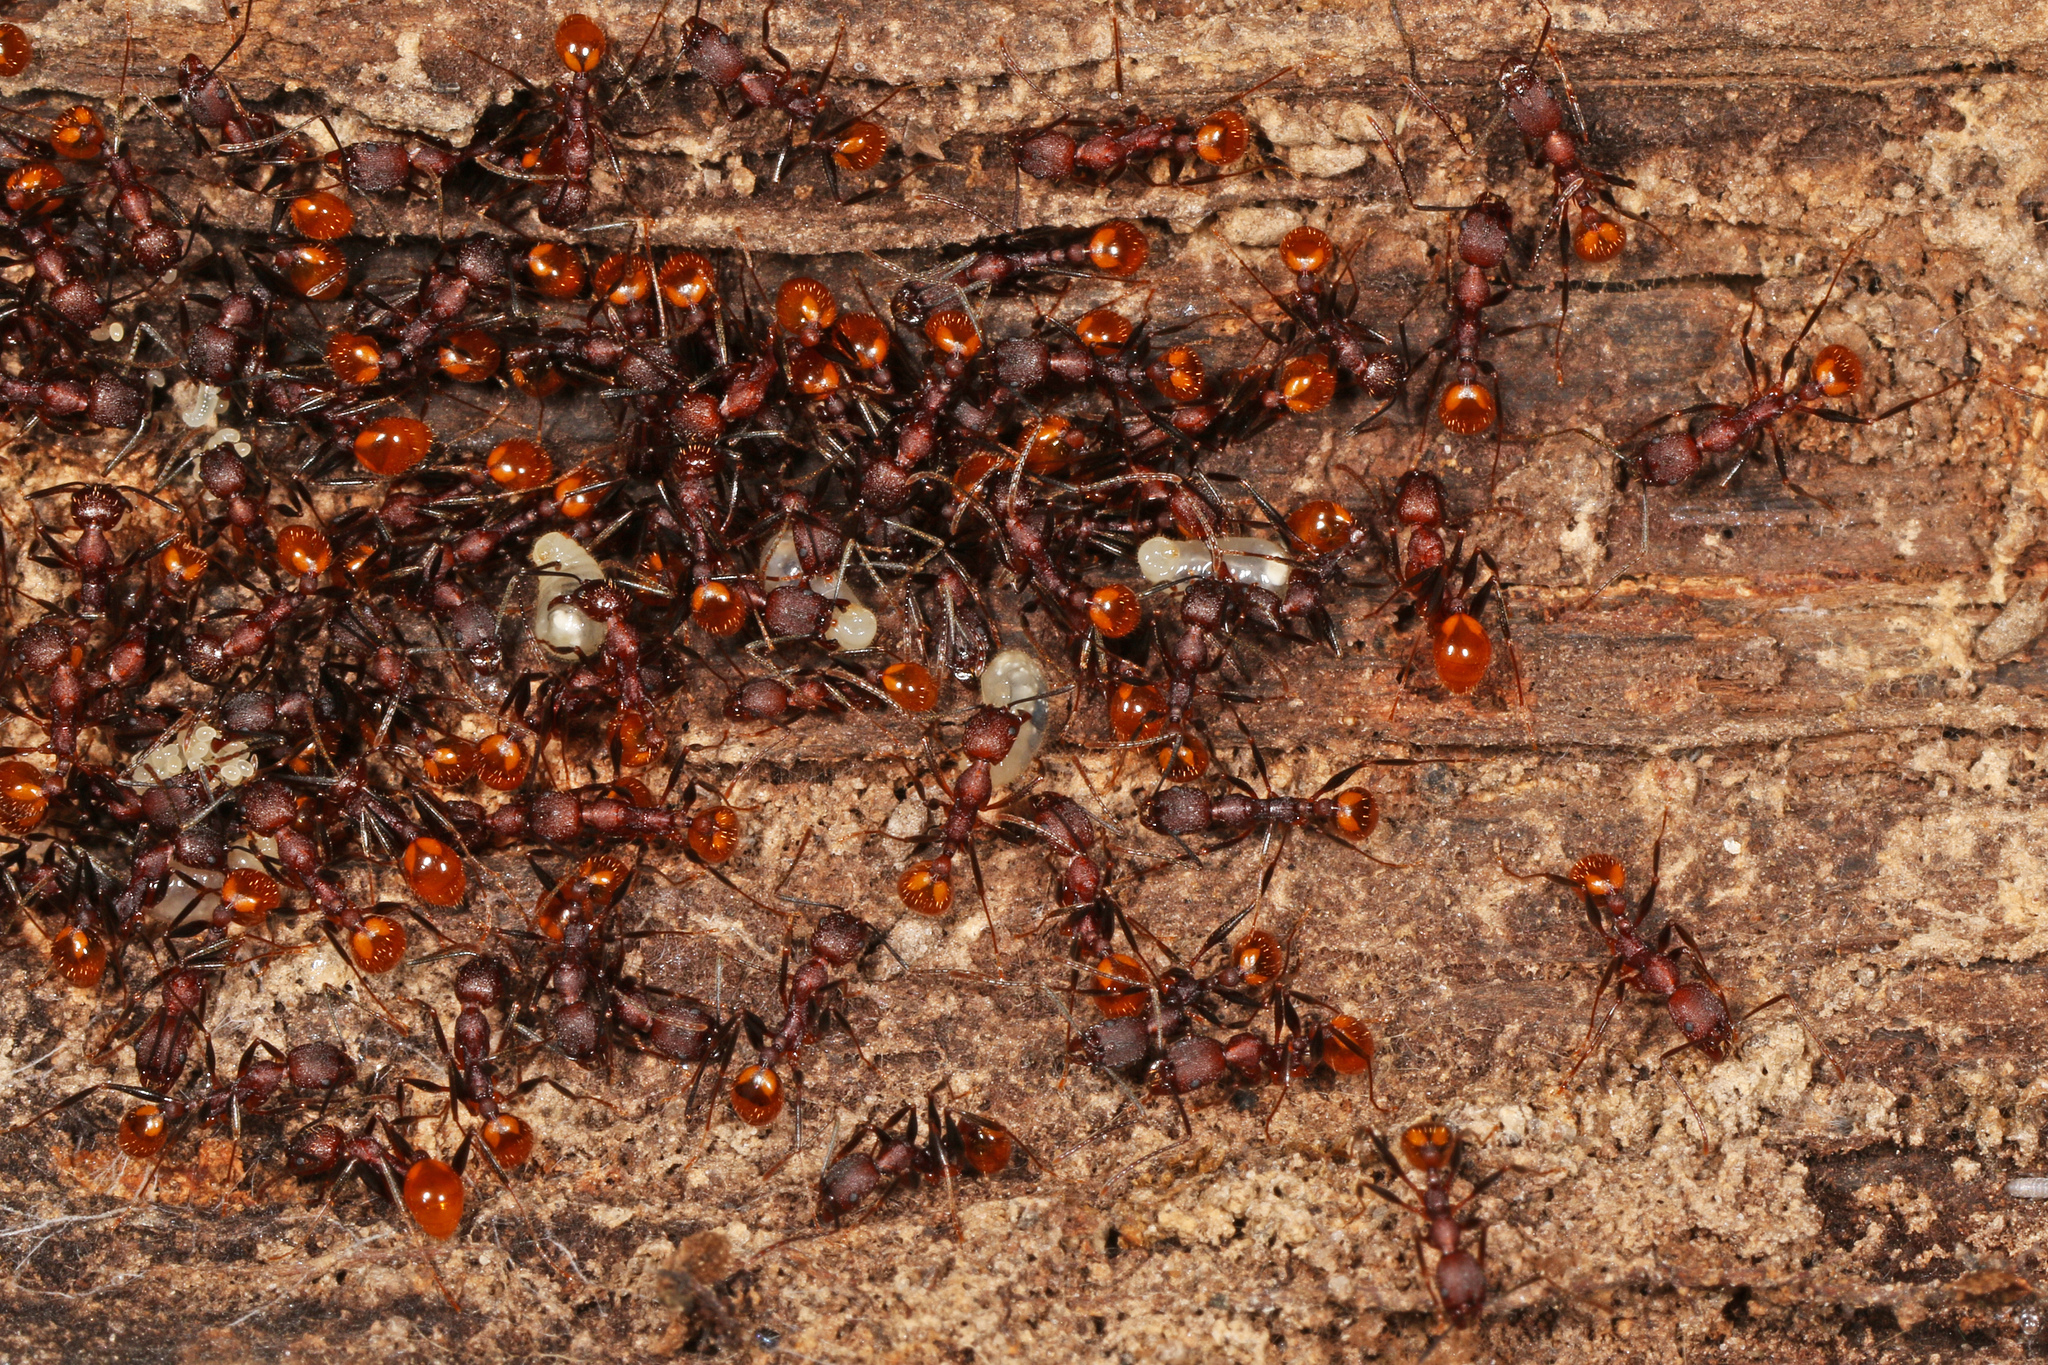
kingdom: Animalia
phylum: Arthropoda
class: Insecta
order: Hymenoptera
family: Formicidae
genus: Aphaenogaster
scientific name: Aphaenogaster lamellidens
